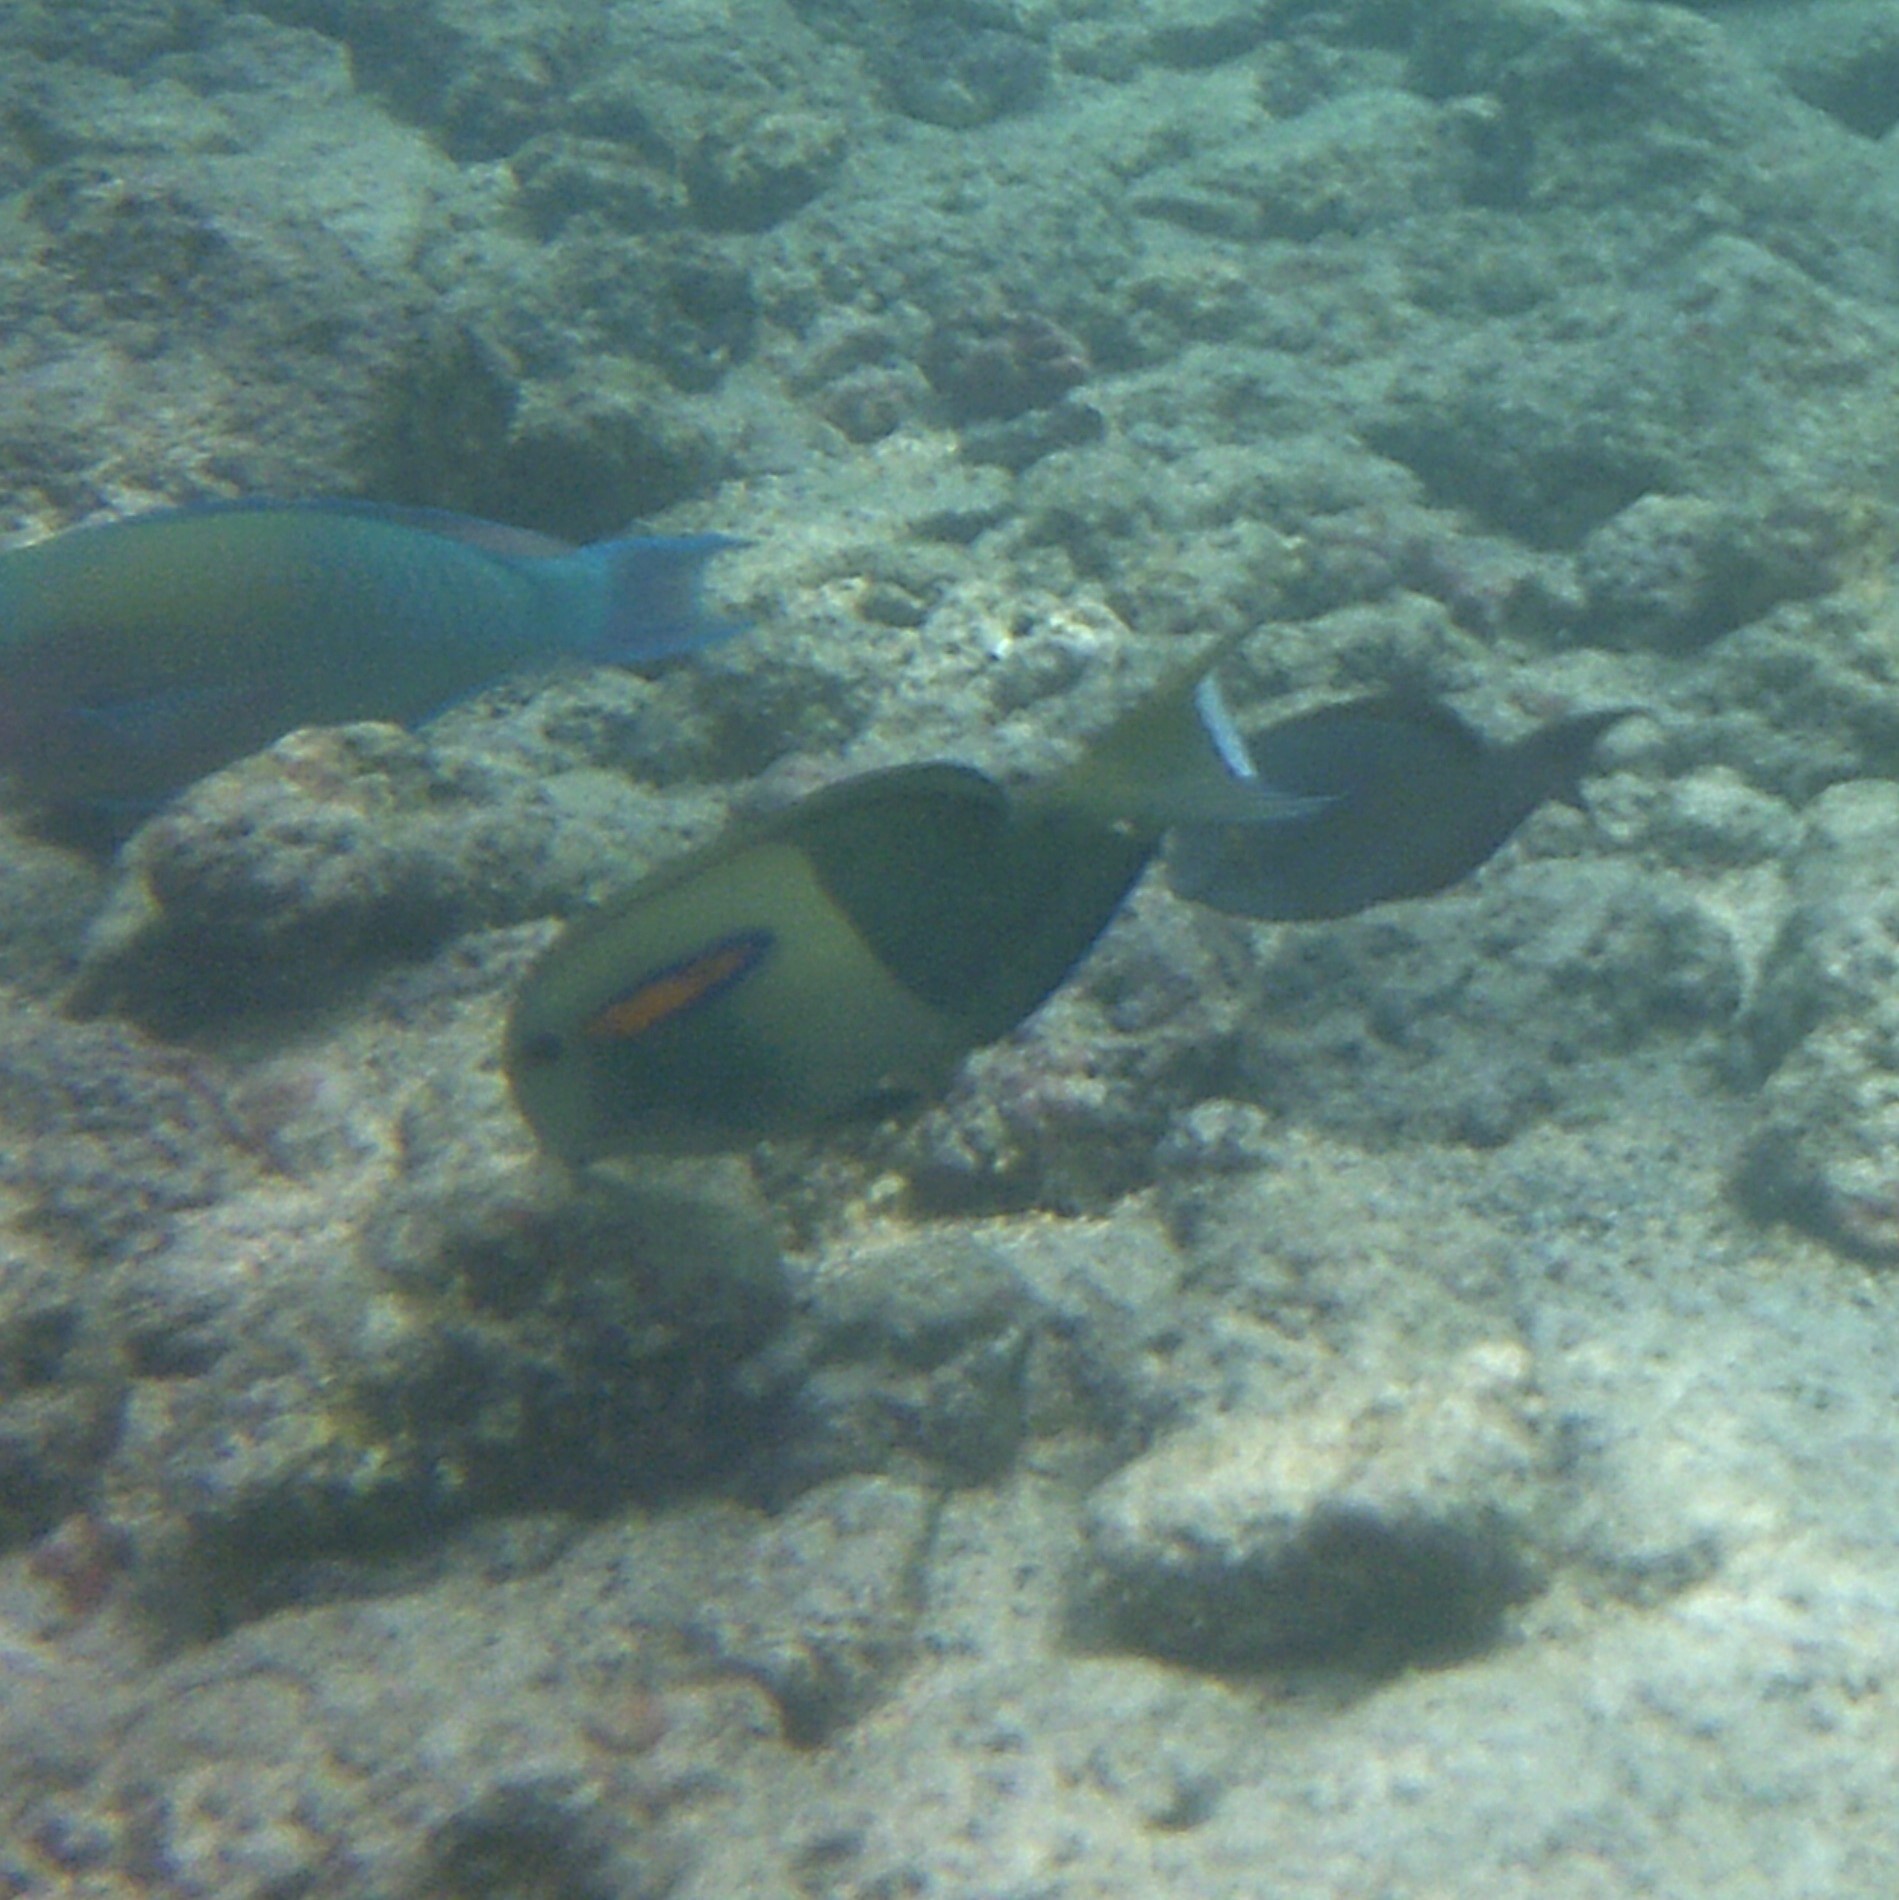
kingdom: Animalia
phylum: Chordata
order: Perciformes
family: Acanthuridae
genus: Acanthurus
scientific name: Acanthurus olivaceus
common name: Gendarme fish
